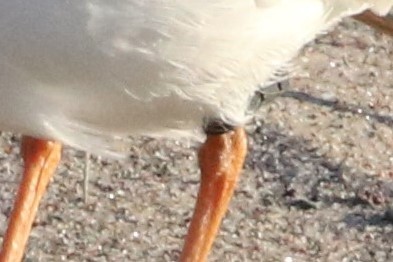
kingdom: Animalia
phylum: Chordata
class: Aves
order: Charadriiformes
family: Charadriidae
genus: Charadrius
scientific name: Charadrius melodus
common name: Piping plover
